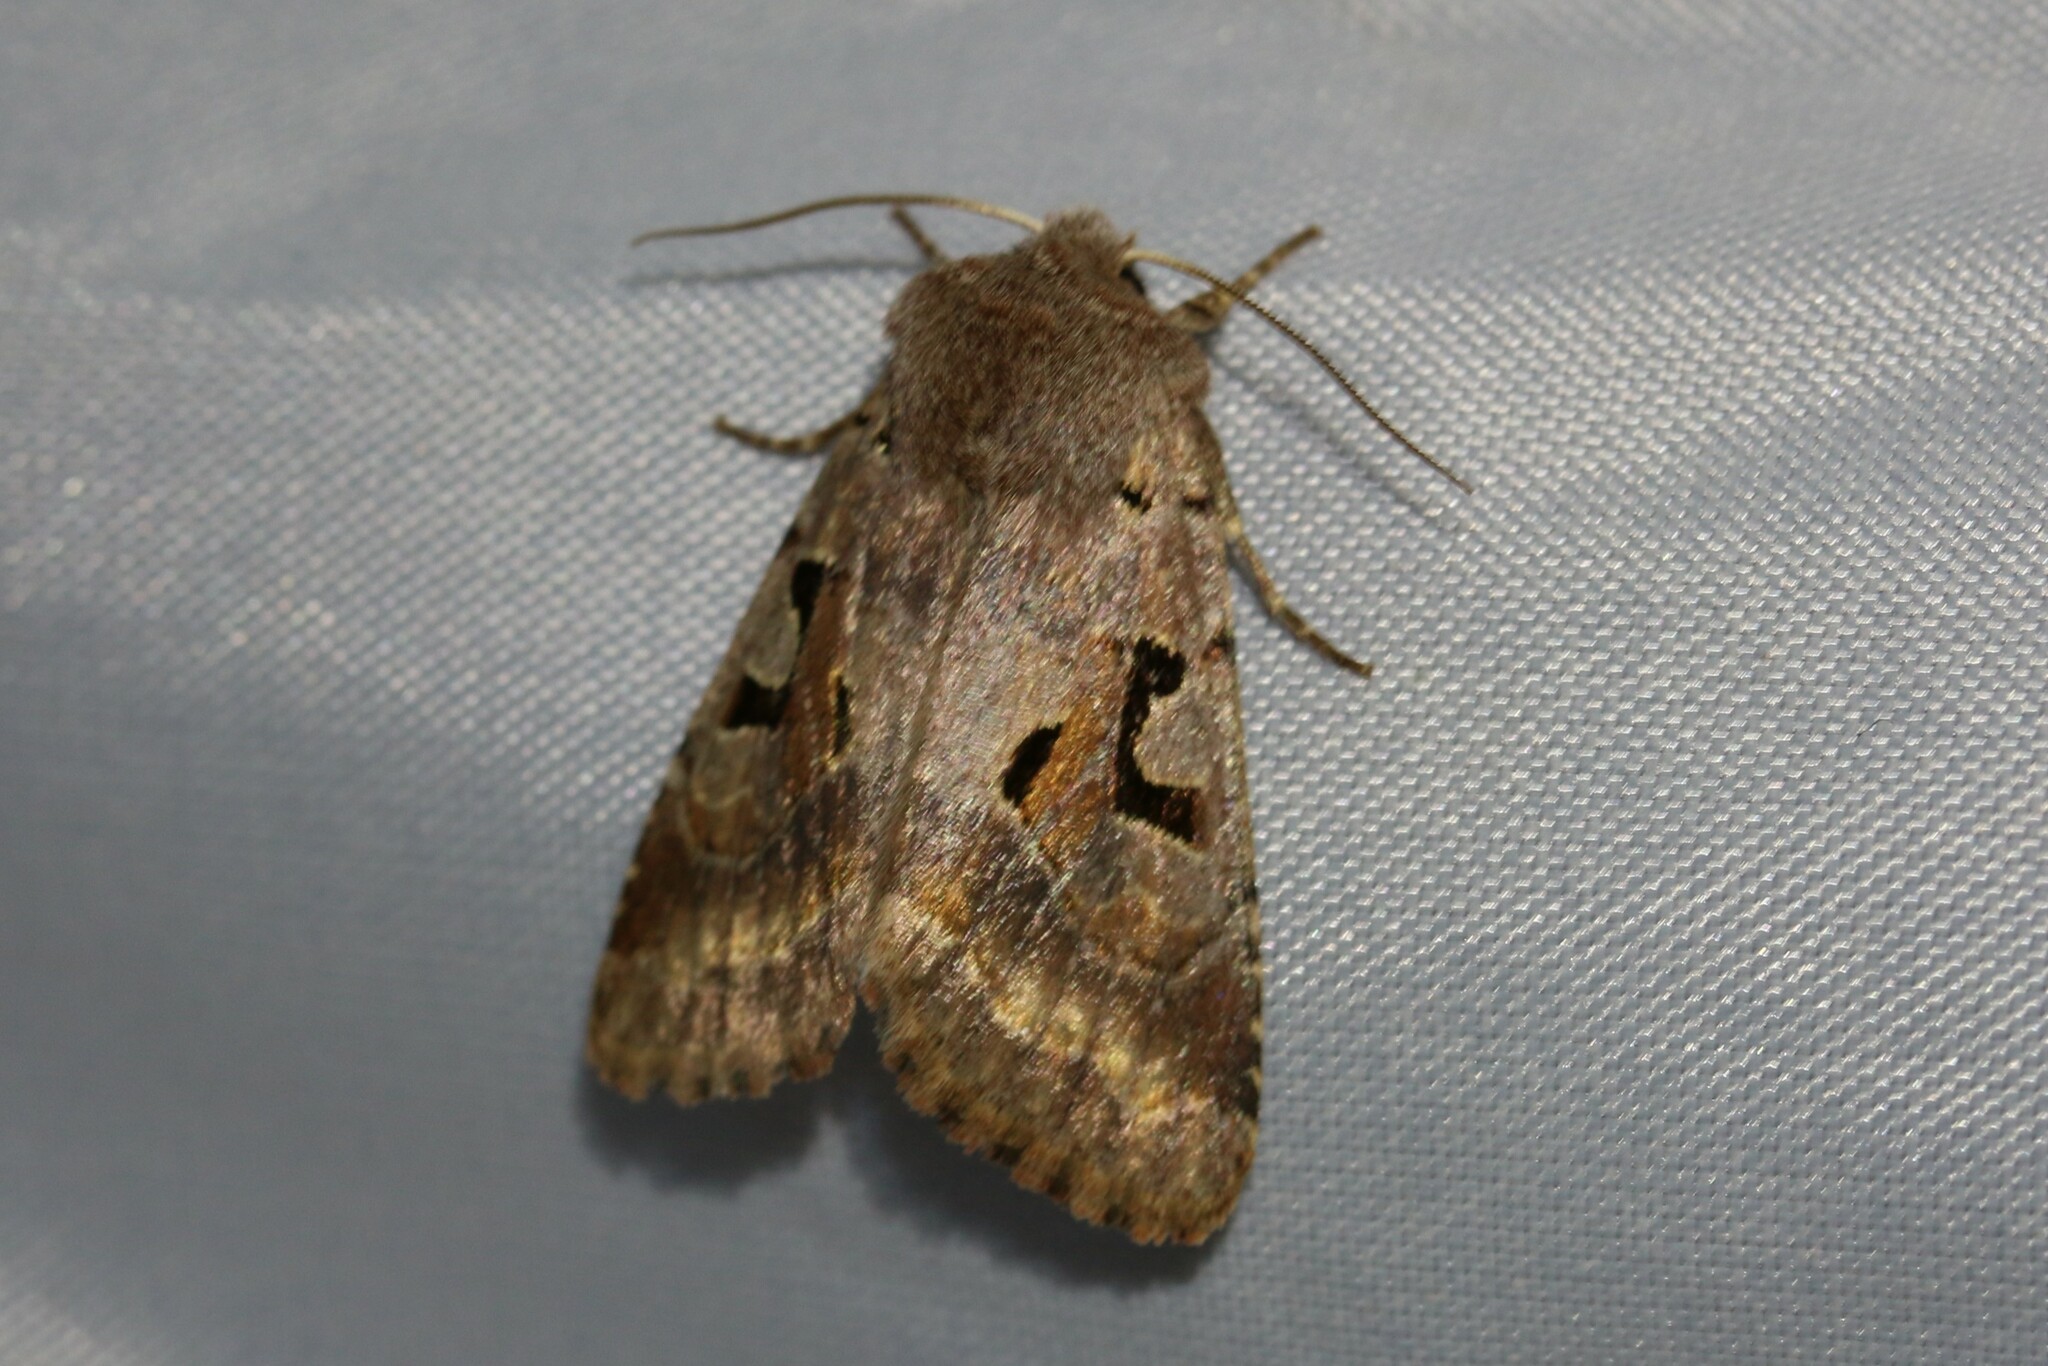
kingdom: Animalia
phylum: Arthropoda
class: Insecta
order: Lepidoptera
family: Noctuidae
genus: Orthosia
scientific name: Orthosia gothica
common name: Hebrew character
